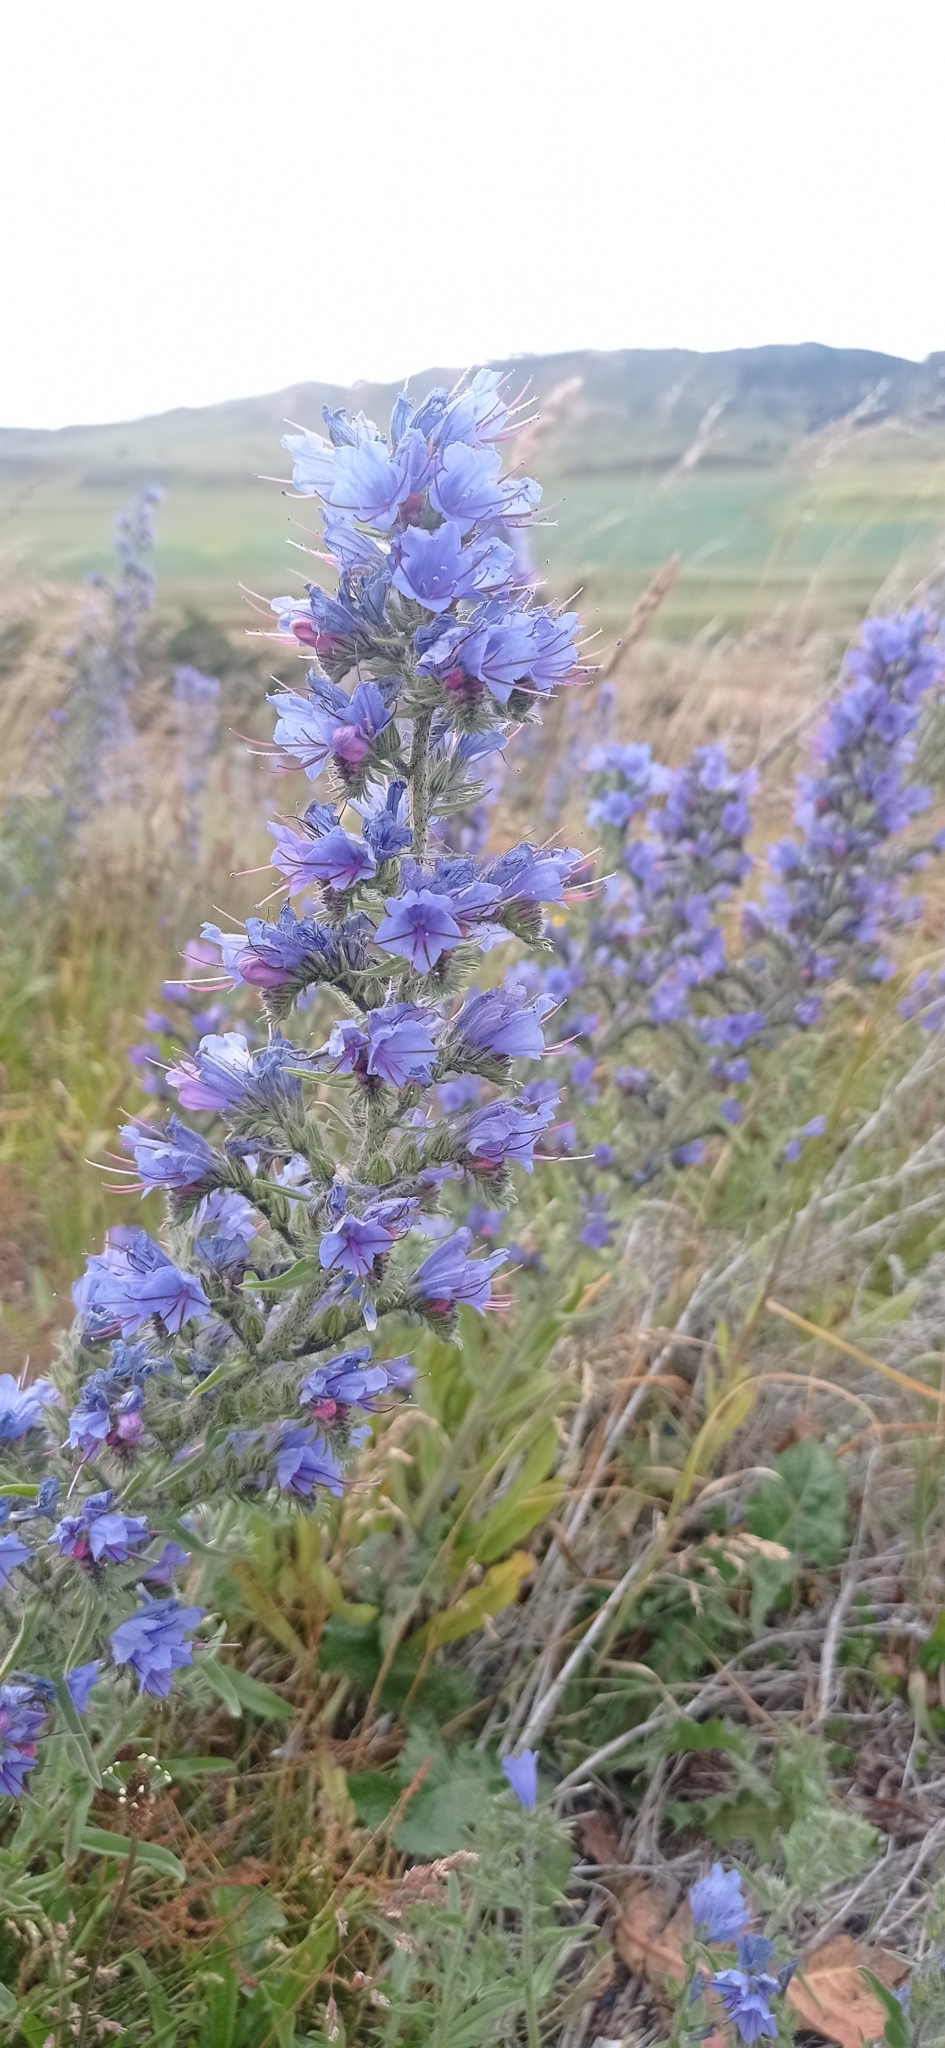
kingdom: Plantae
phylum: Tracheophyta
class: Magnoliopsida
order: Boraginales
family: Boraginaceae
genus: Echium
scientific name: Echium vulgare
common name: Common viper's bugloss
